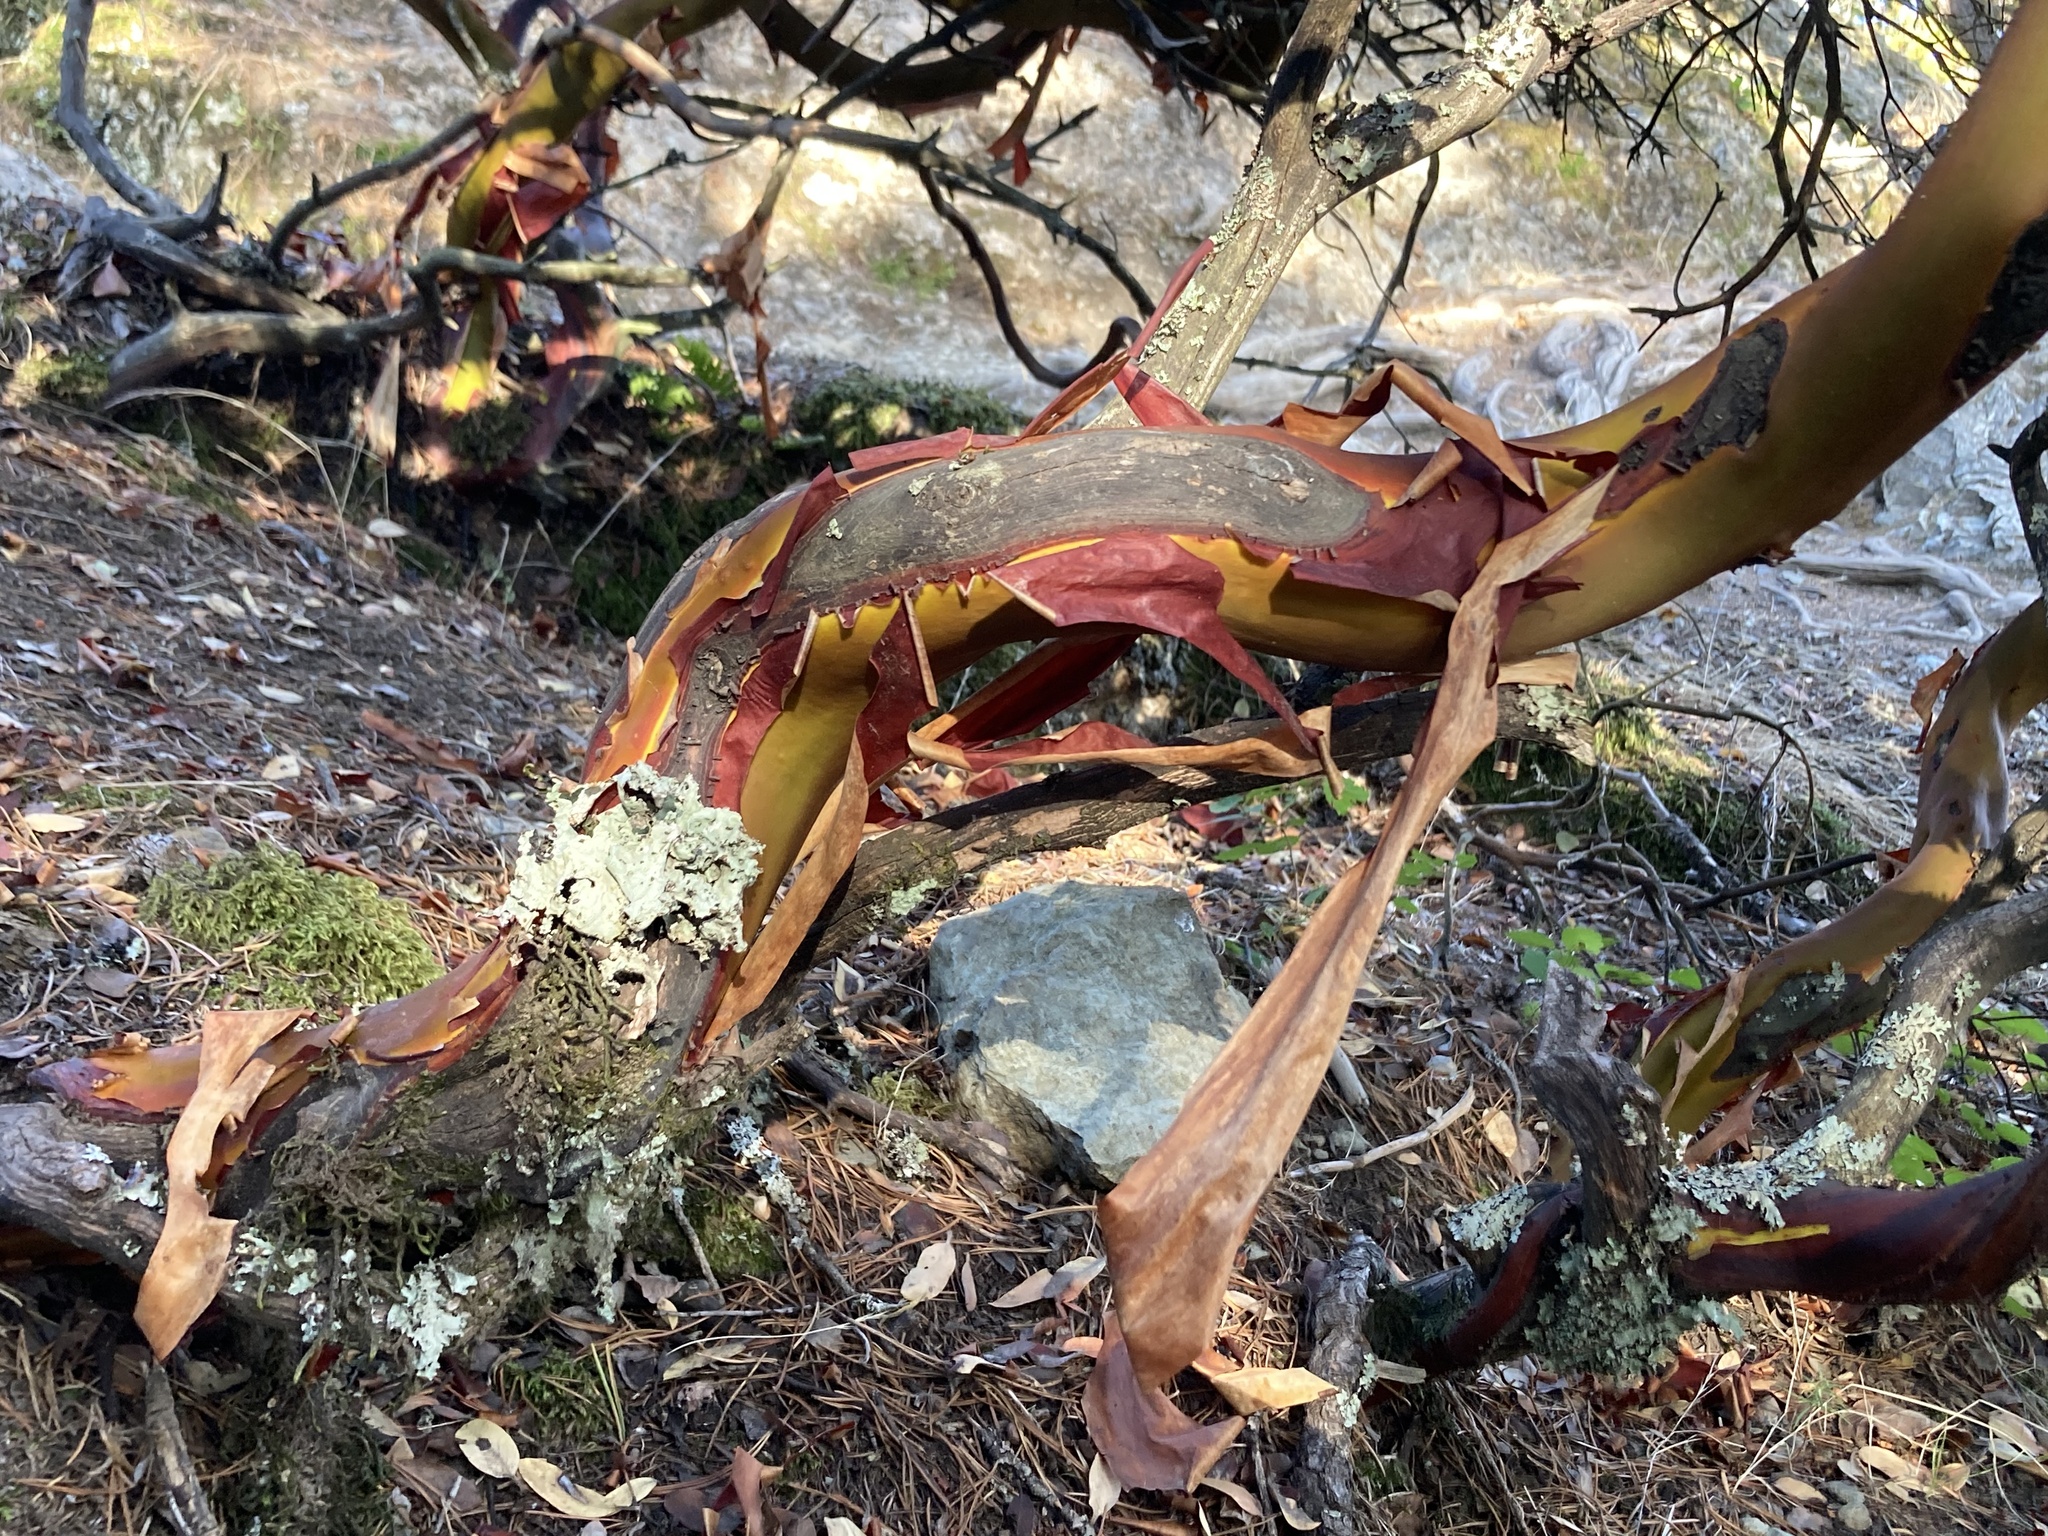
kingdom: Plantae
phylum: Tracheophyta
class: Magnoliopsida
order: Ericales
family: Ericaceae
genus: Arctostaphylos
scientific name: Arctostaphylos columbiana
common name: Bristly bearberry
